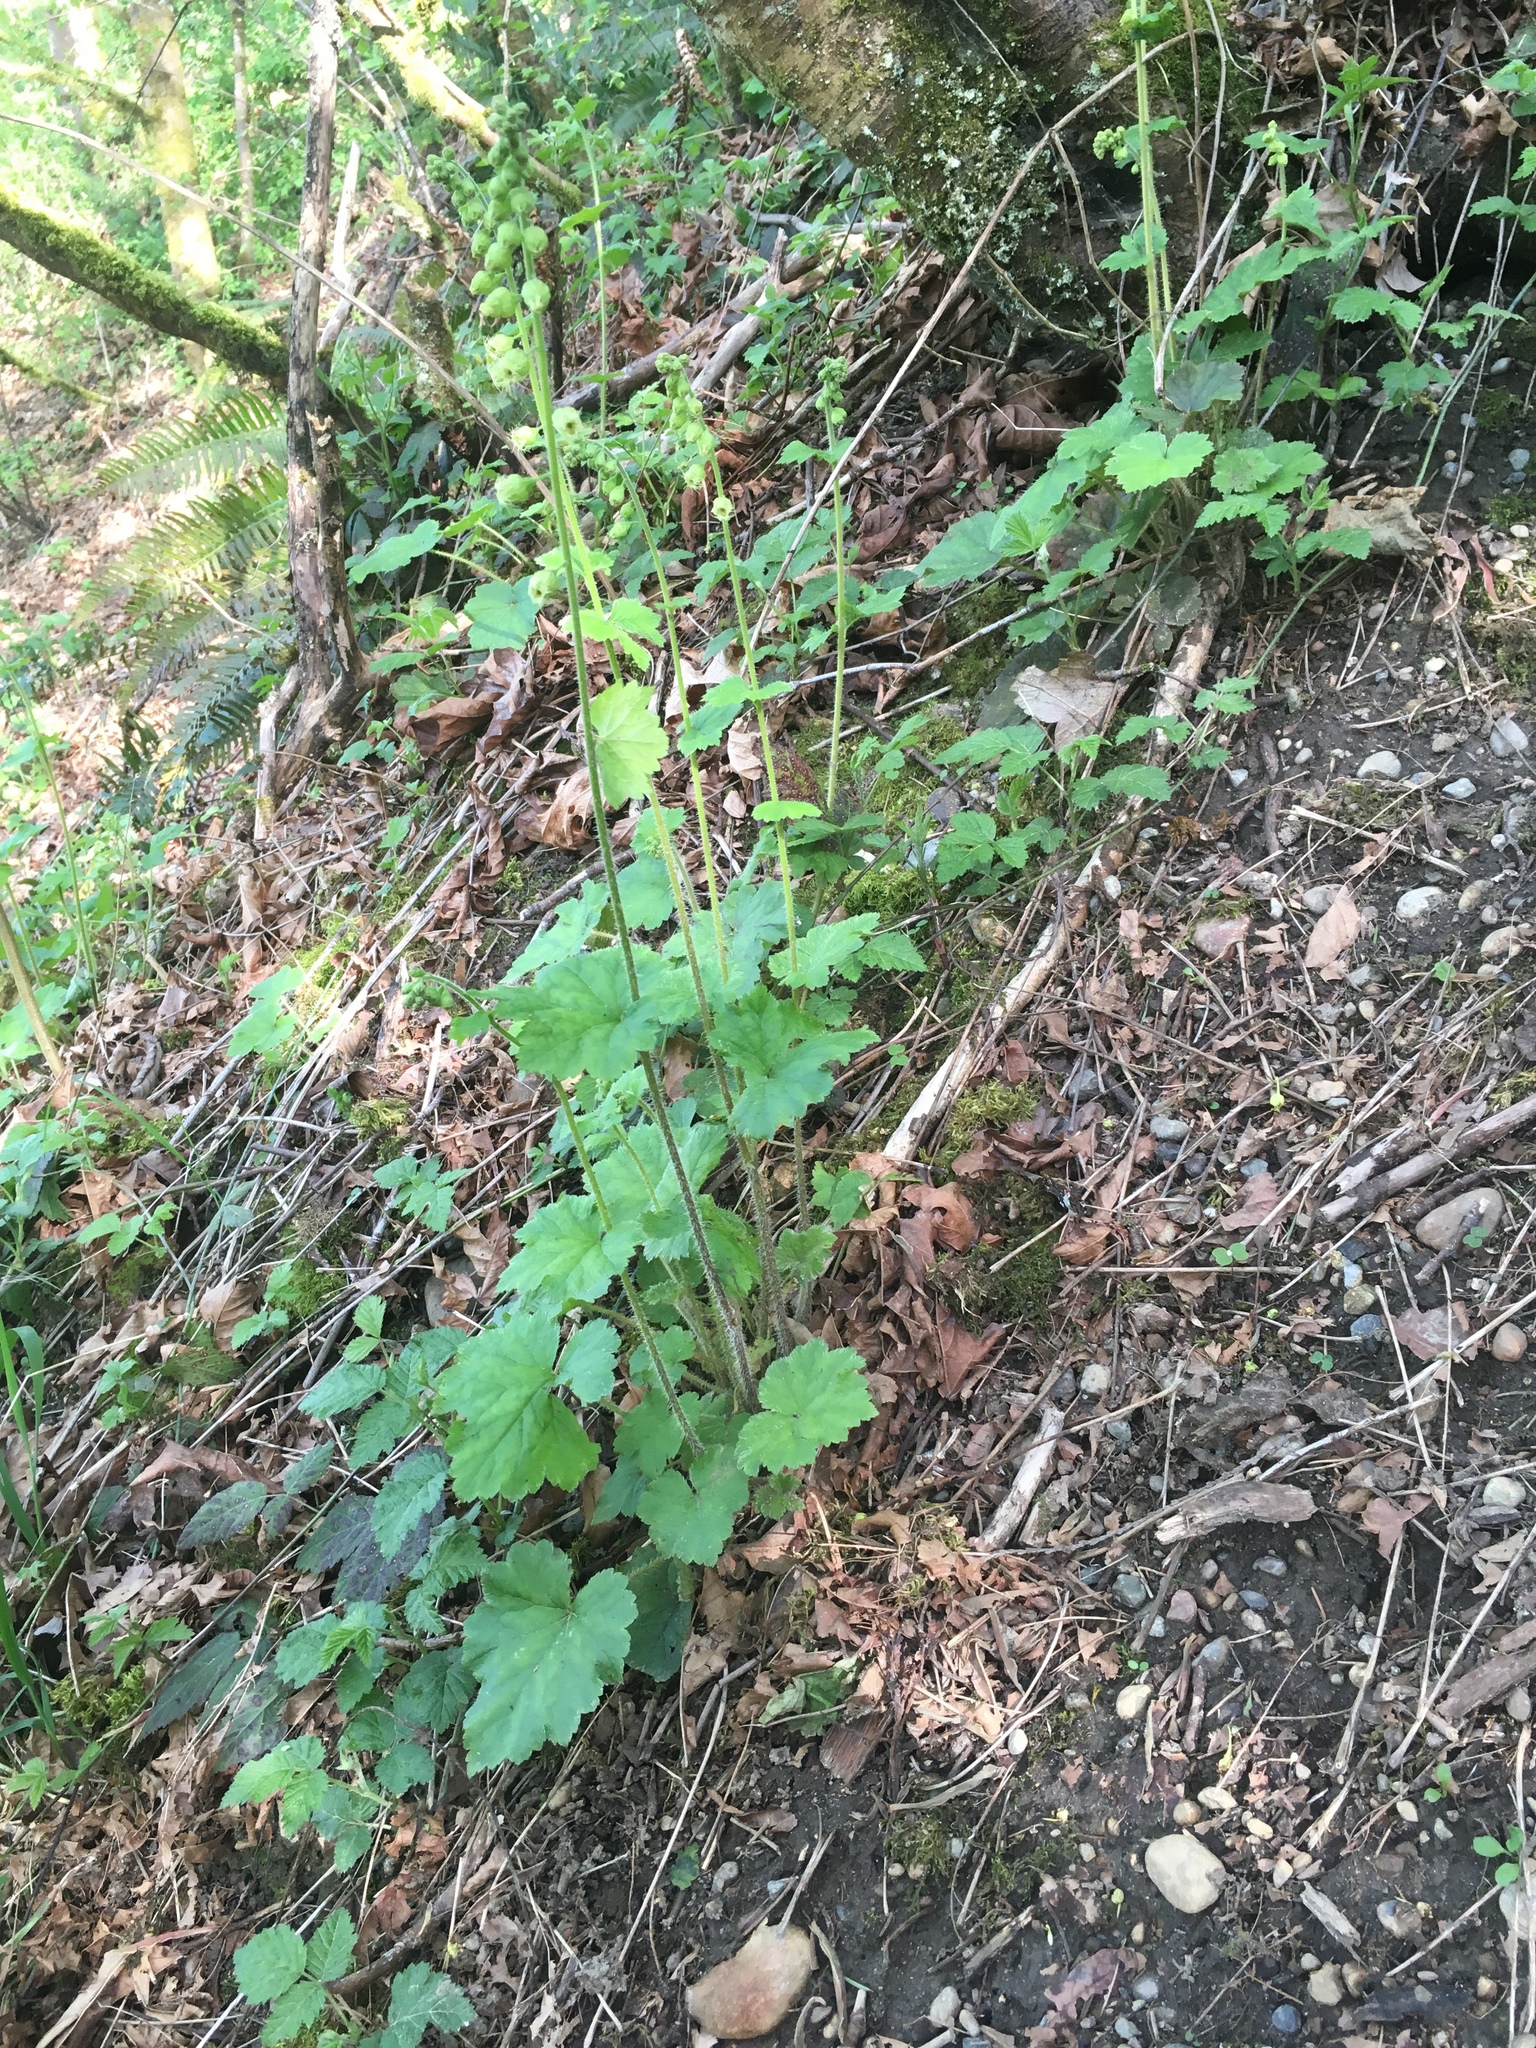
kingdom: Plantae
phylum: Tracheophyta
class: Magnoliopsida
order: Saxifragales
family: Saxifragaceae
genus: Tellima
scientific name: Tellima grandiflora
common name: Fringecups
